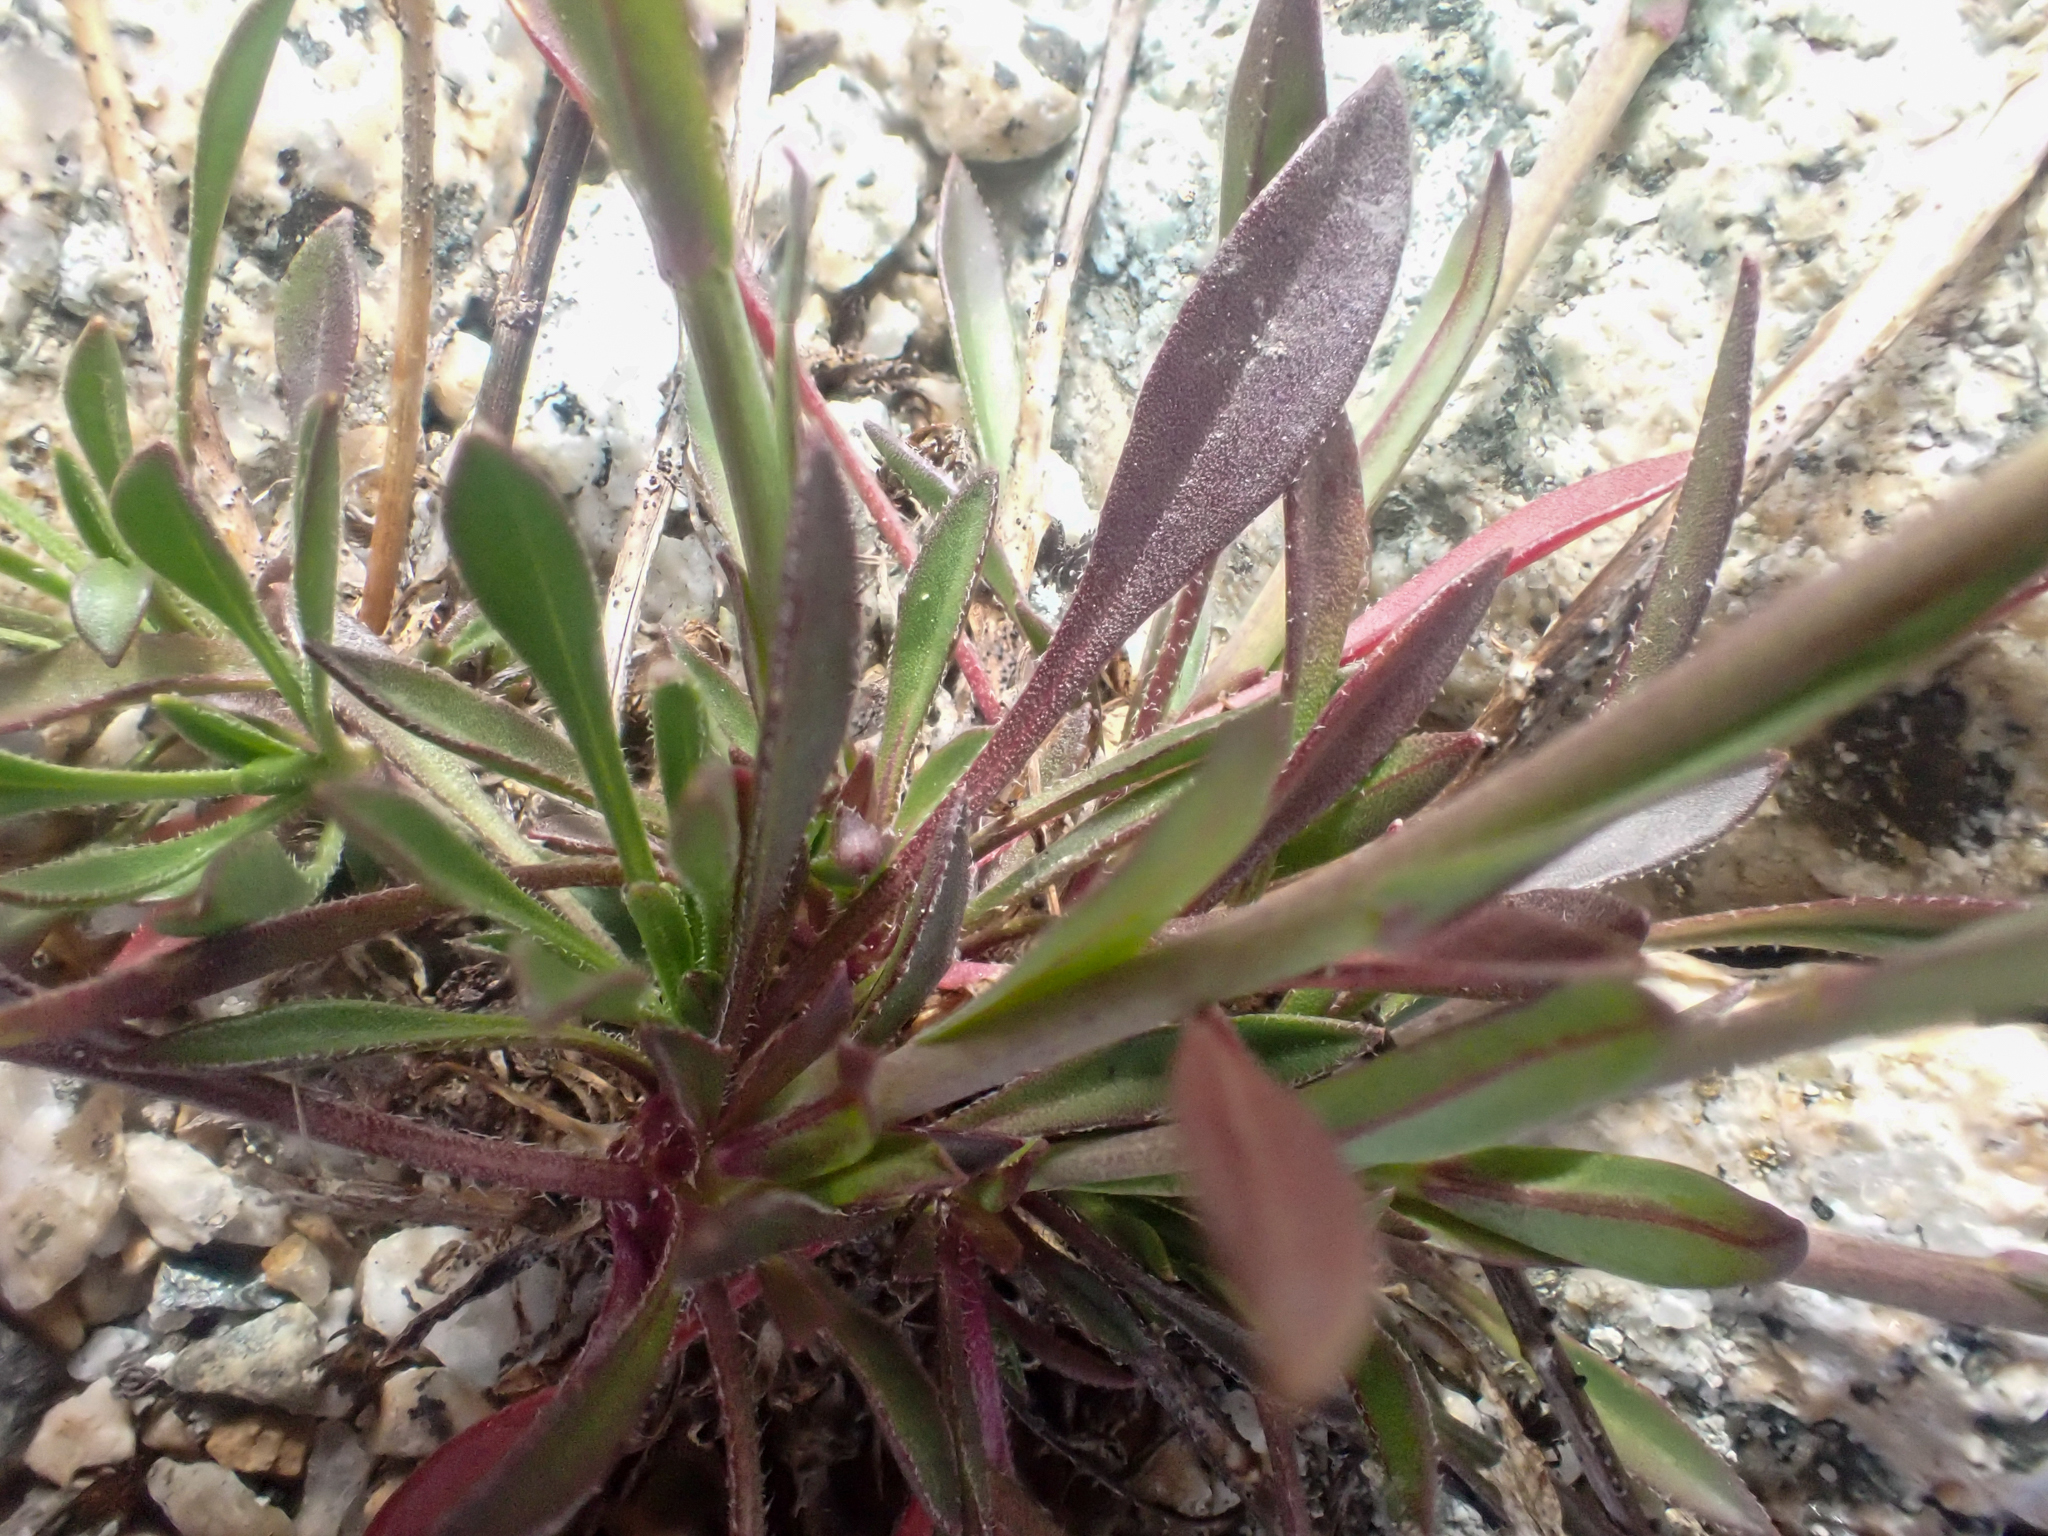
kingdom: Plantae
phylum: Tracheophyta
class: Magnoliopsida
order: Brassicales
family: Brassicaceae
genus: Boechera
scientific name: Boechera lyallii
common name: Lyall's rockcress
